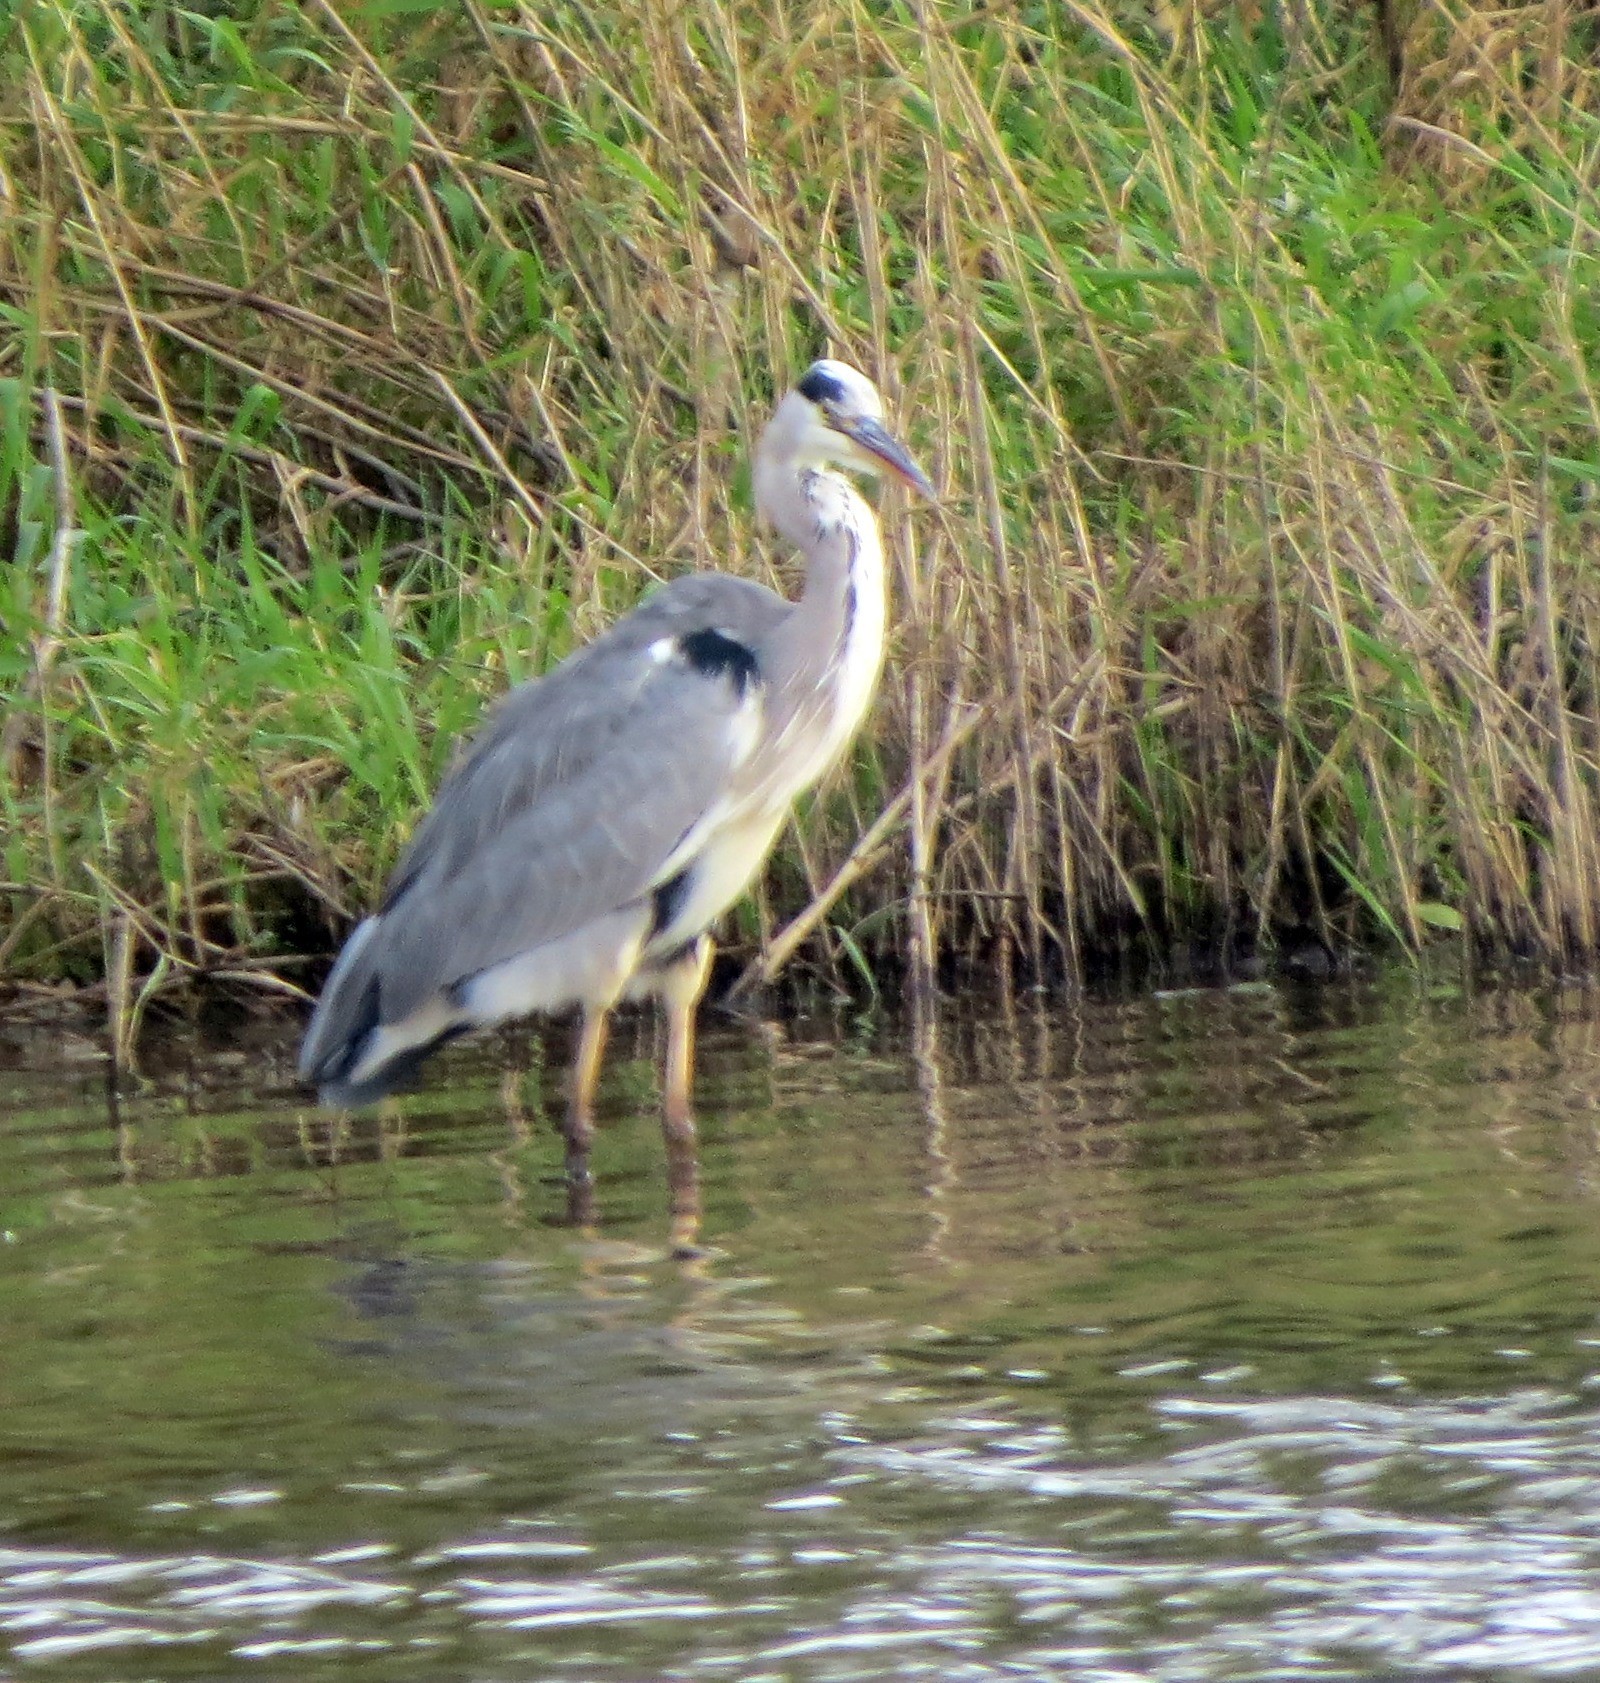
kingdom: Animalia
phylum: Chordata
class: Aves
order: Pelecaniformes
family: Ardeidae
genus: Ardea
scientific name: Ardea cinerea
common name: Grey heron
